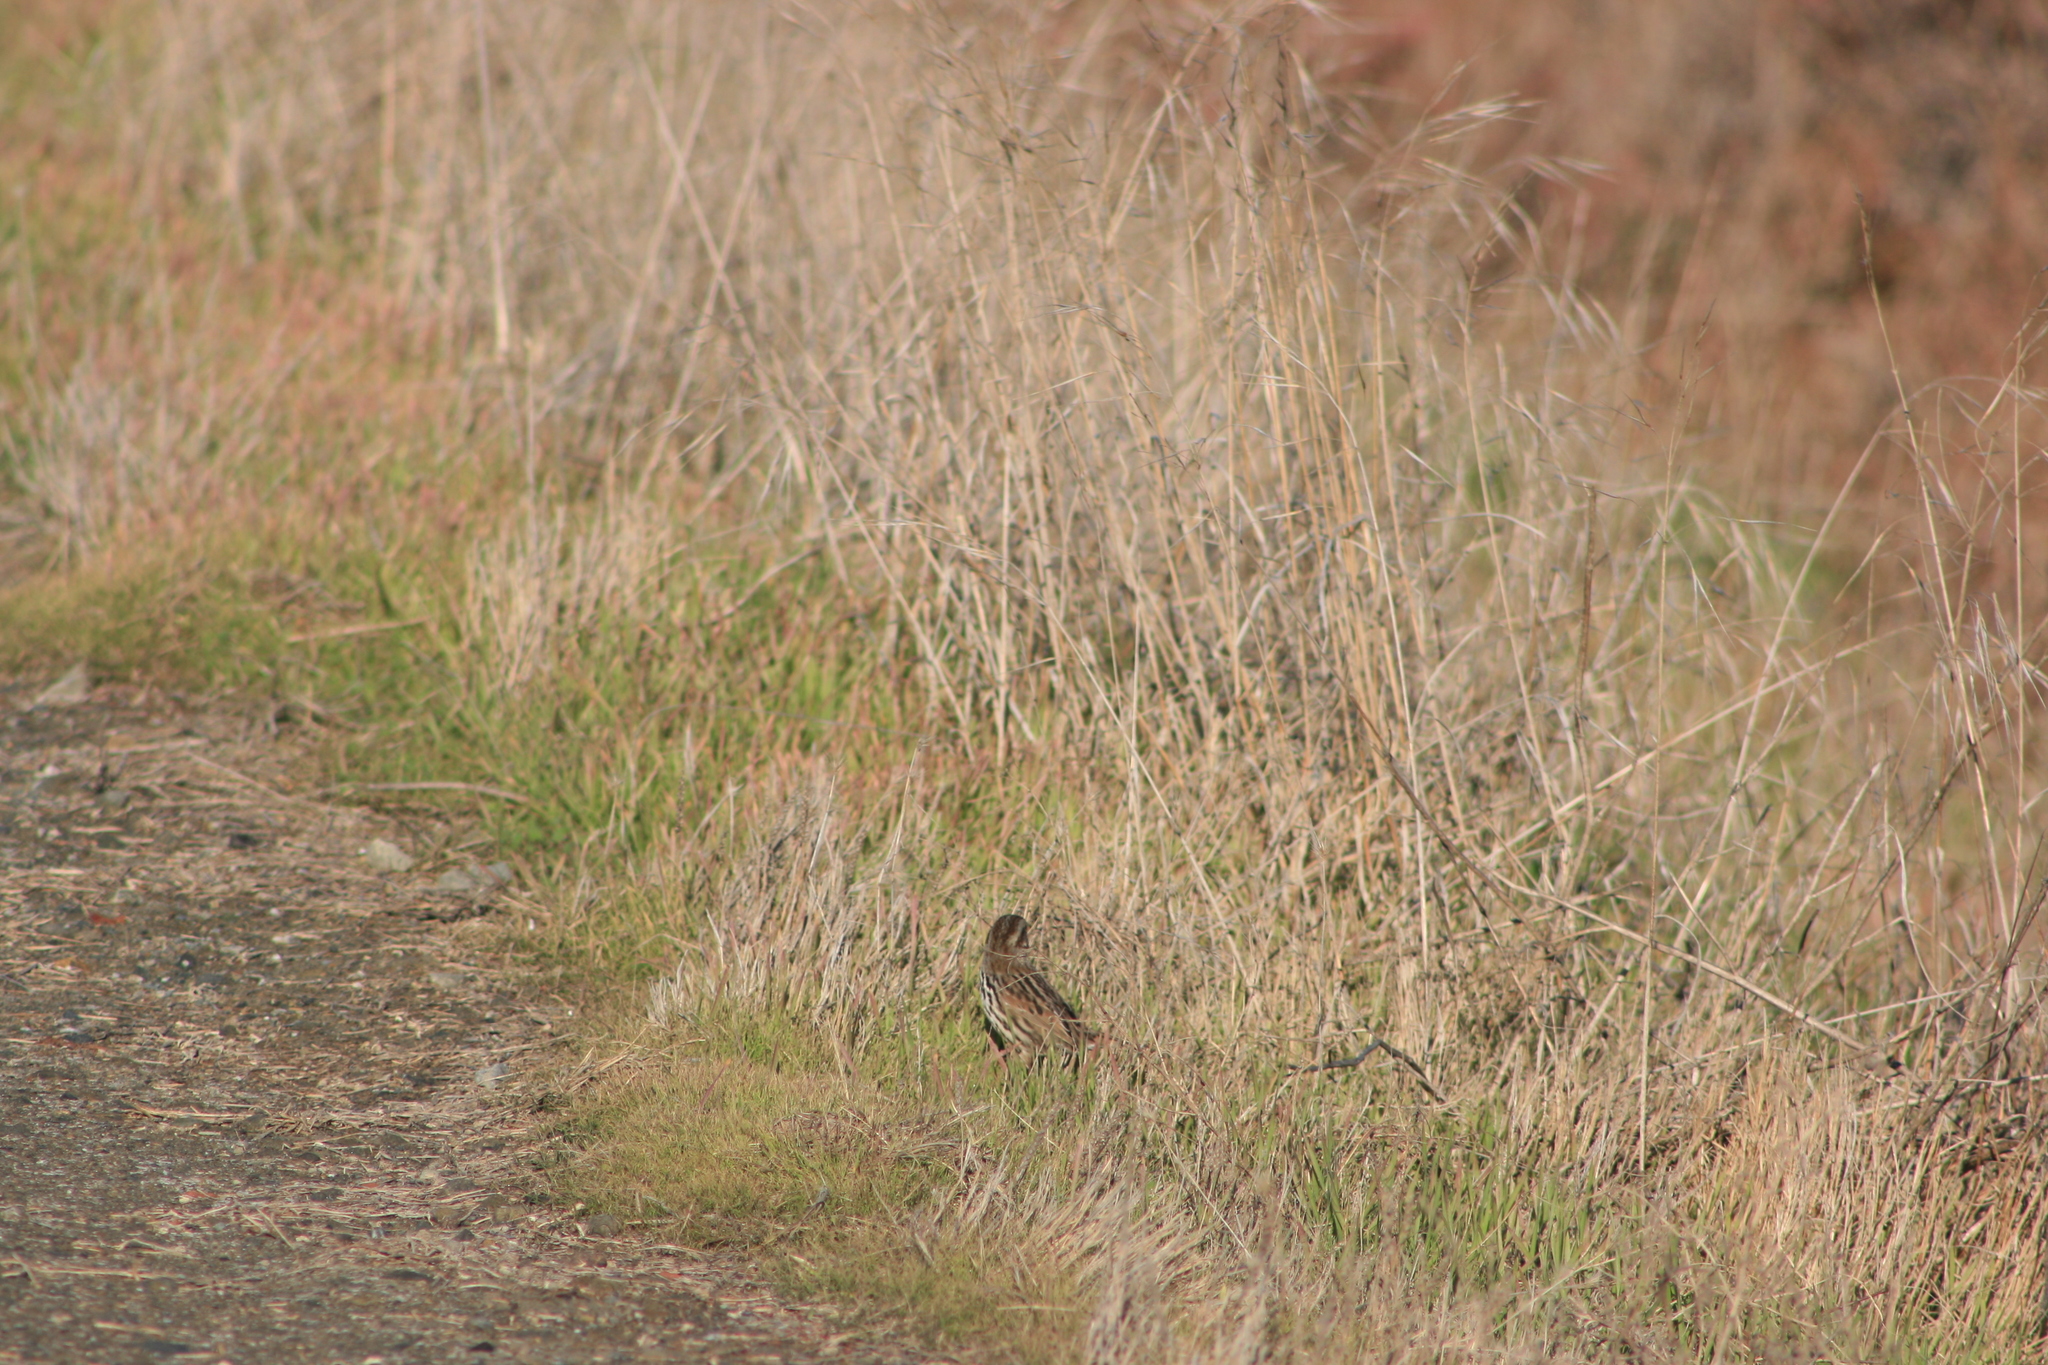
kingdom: Animalia
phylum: Chordata
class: Aves
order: Passeriformes
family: Passerellidae
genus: Melospiza
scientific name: Melospiza melodia
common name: Song sparrow
